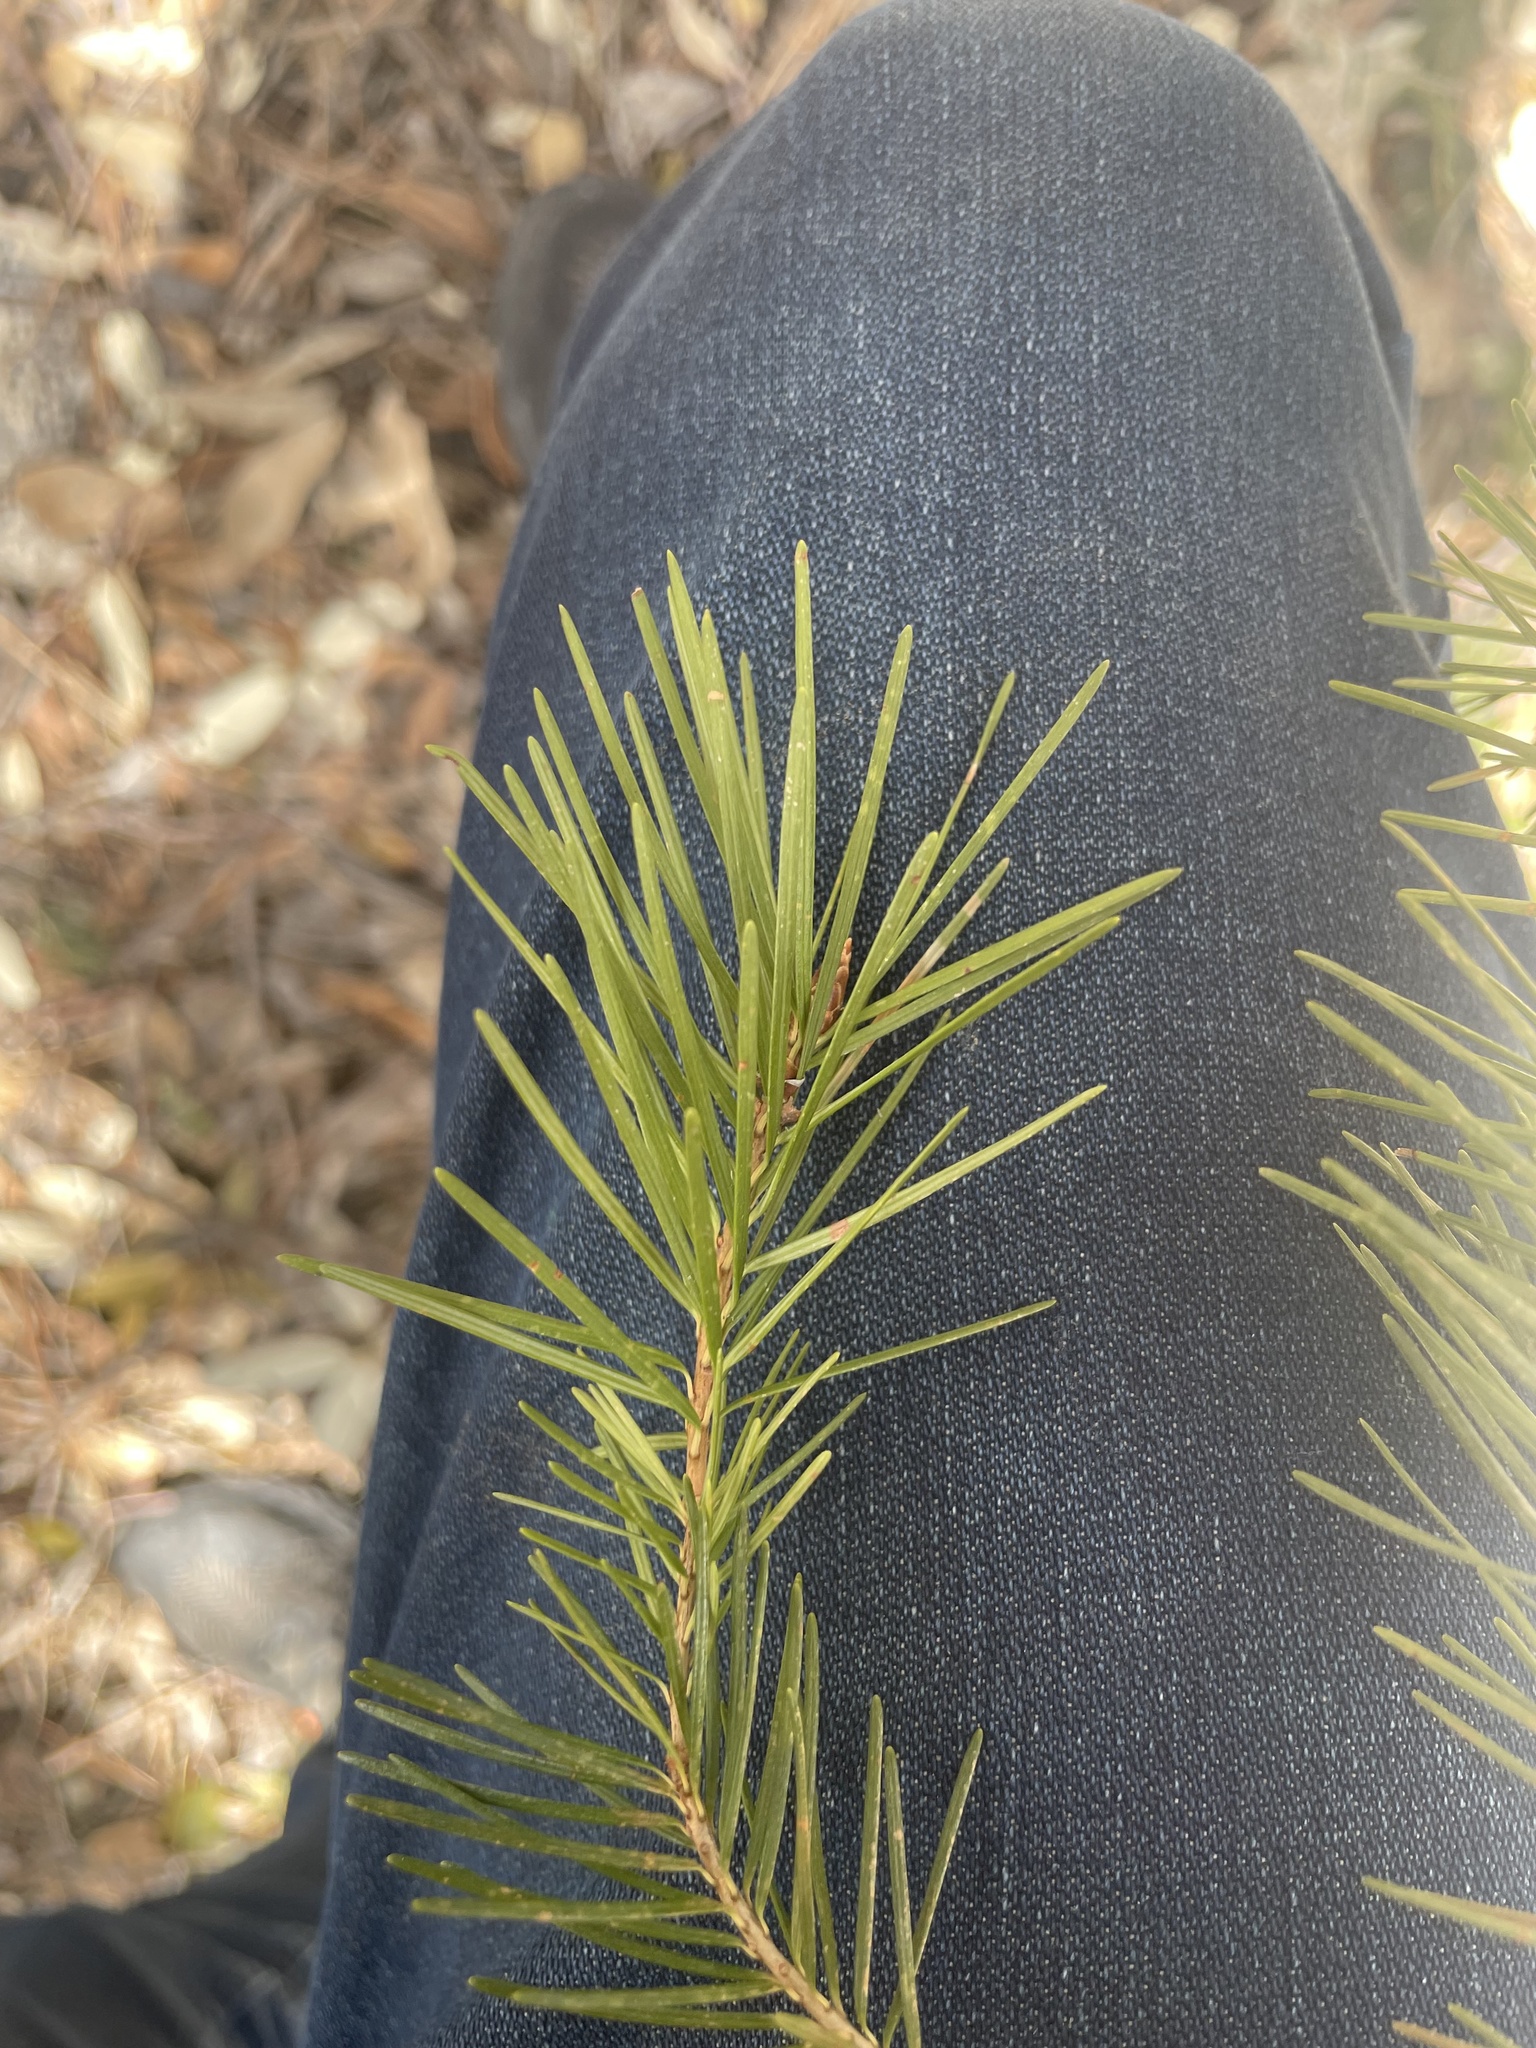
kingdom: Plantae
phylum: Tracheophyta
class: Pinopsida
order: Pinales
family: Pinaceae
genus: Pseudotsuga
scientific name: Pseudotsuga menziesii
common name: Douglas fir
